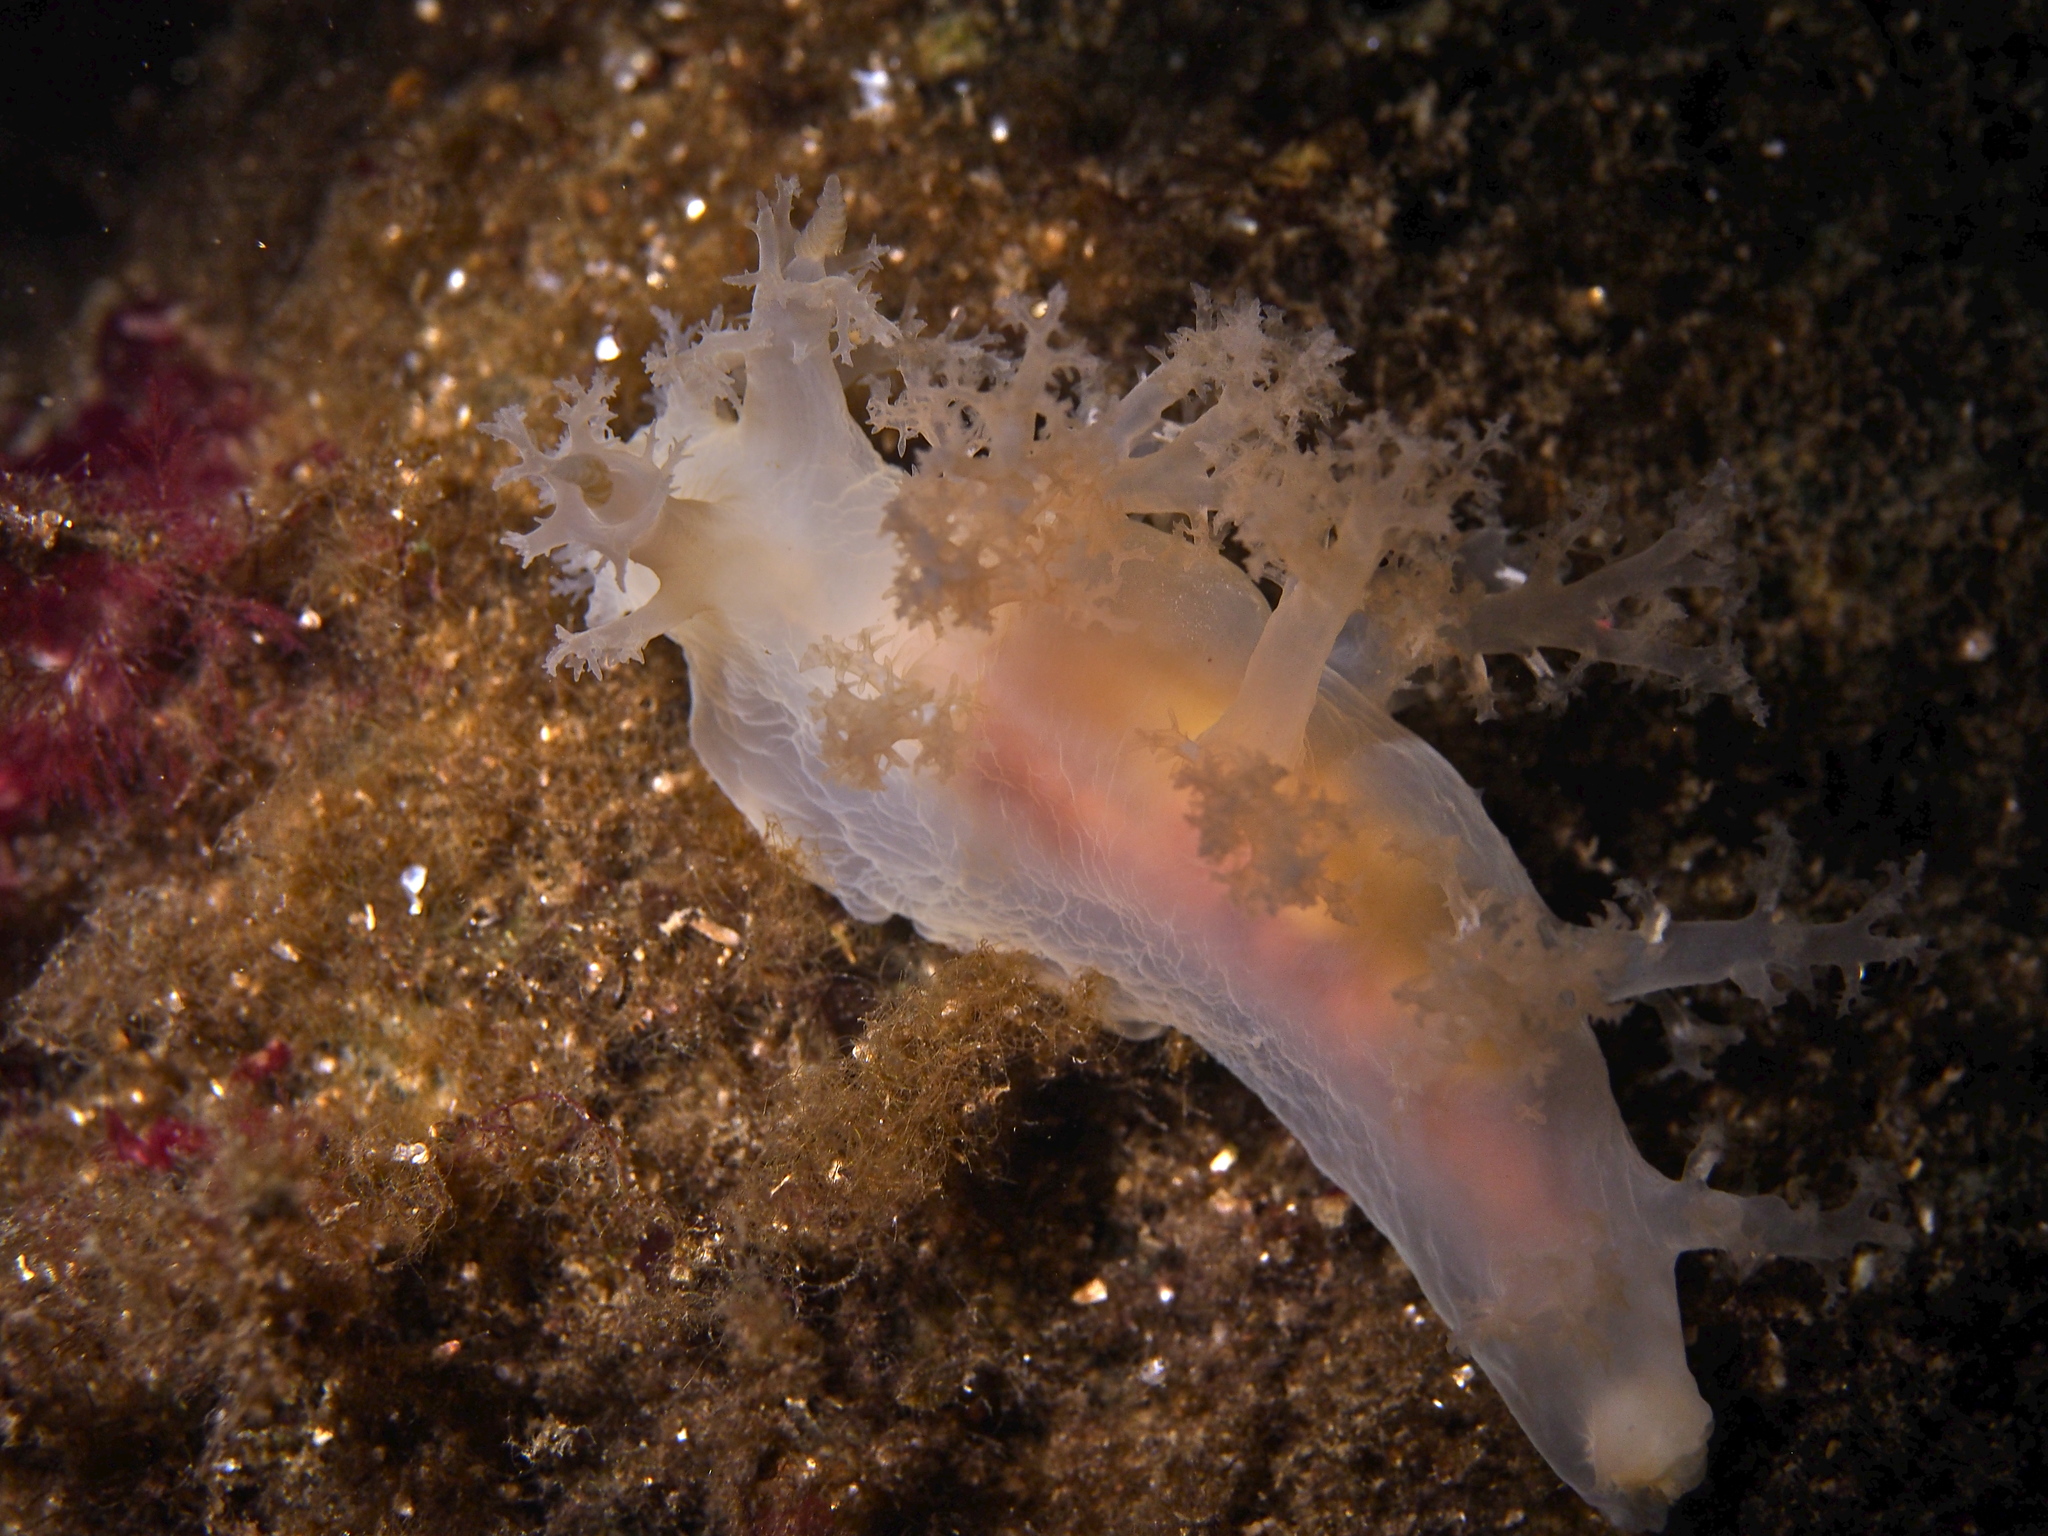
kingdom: Animalia
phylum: Mollusca
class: Gastropoda
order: Nudibranchia
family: Dendronotidae
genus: Dendronotus
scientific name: Dendronotus lacteus
